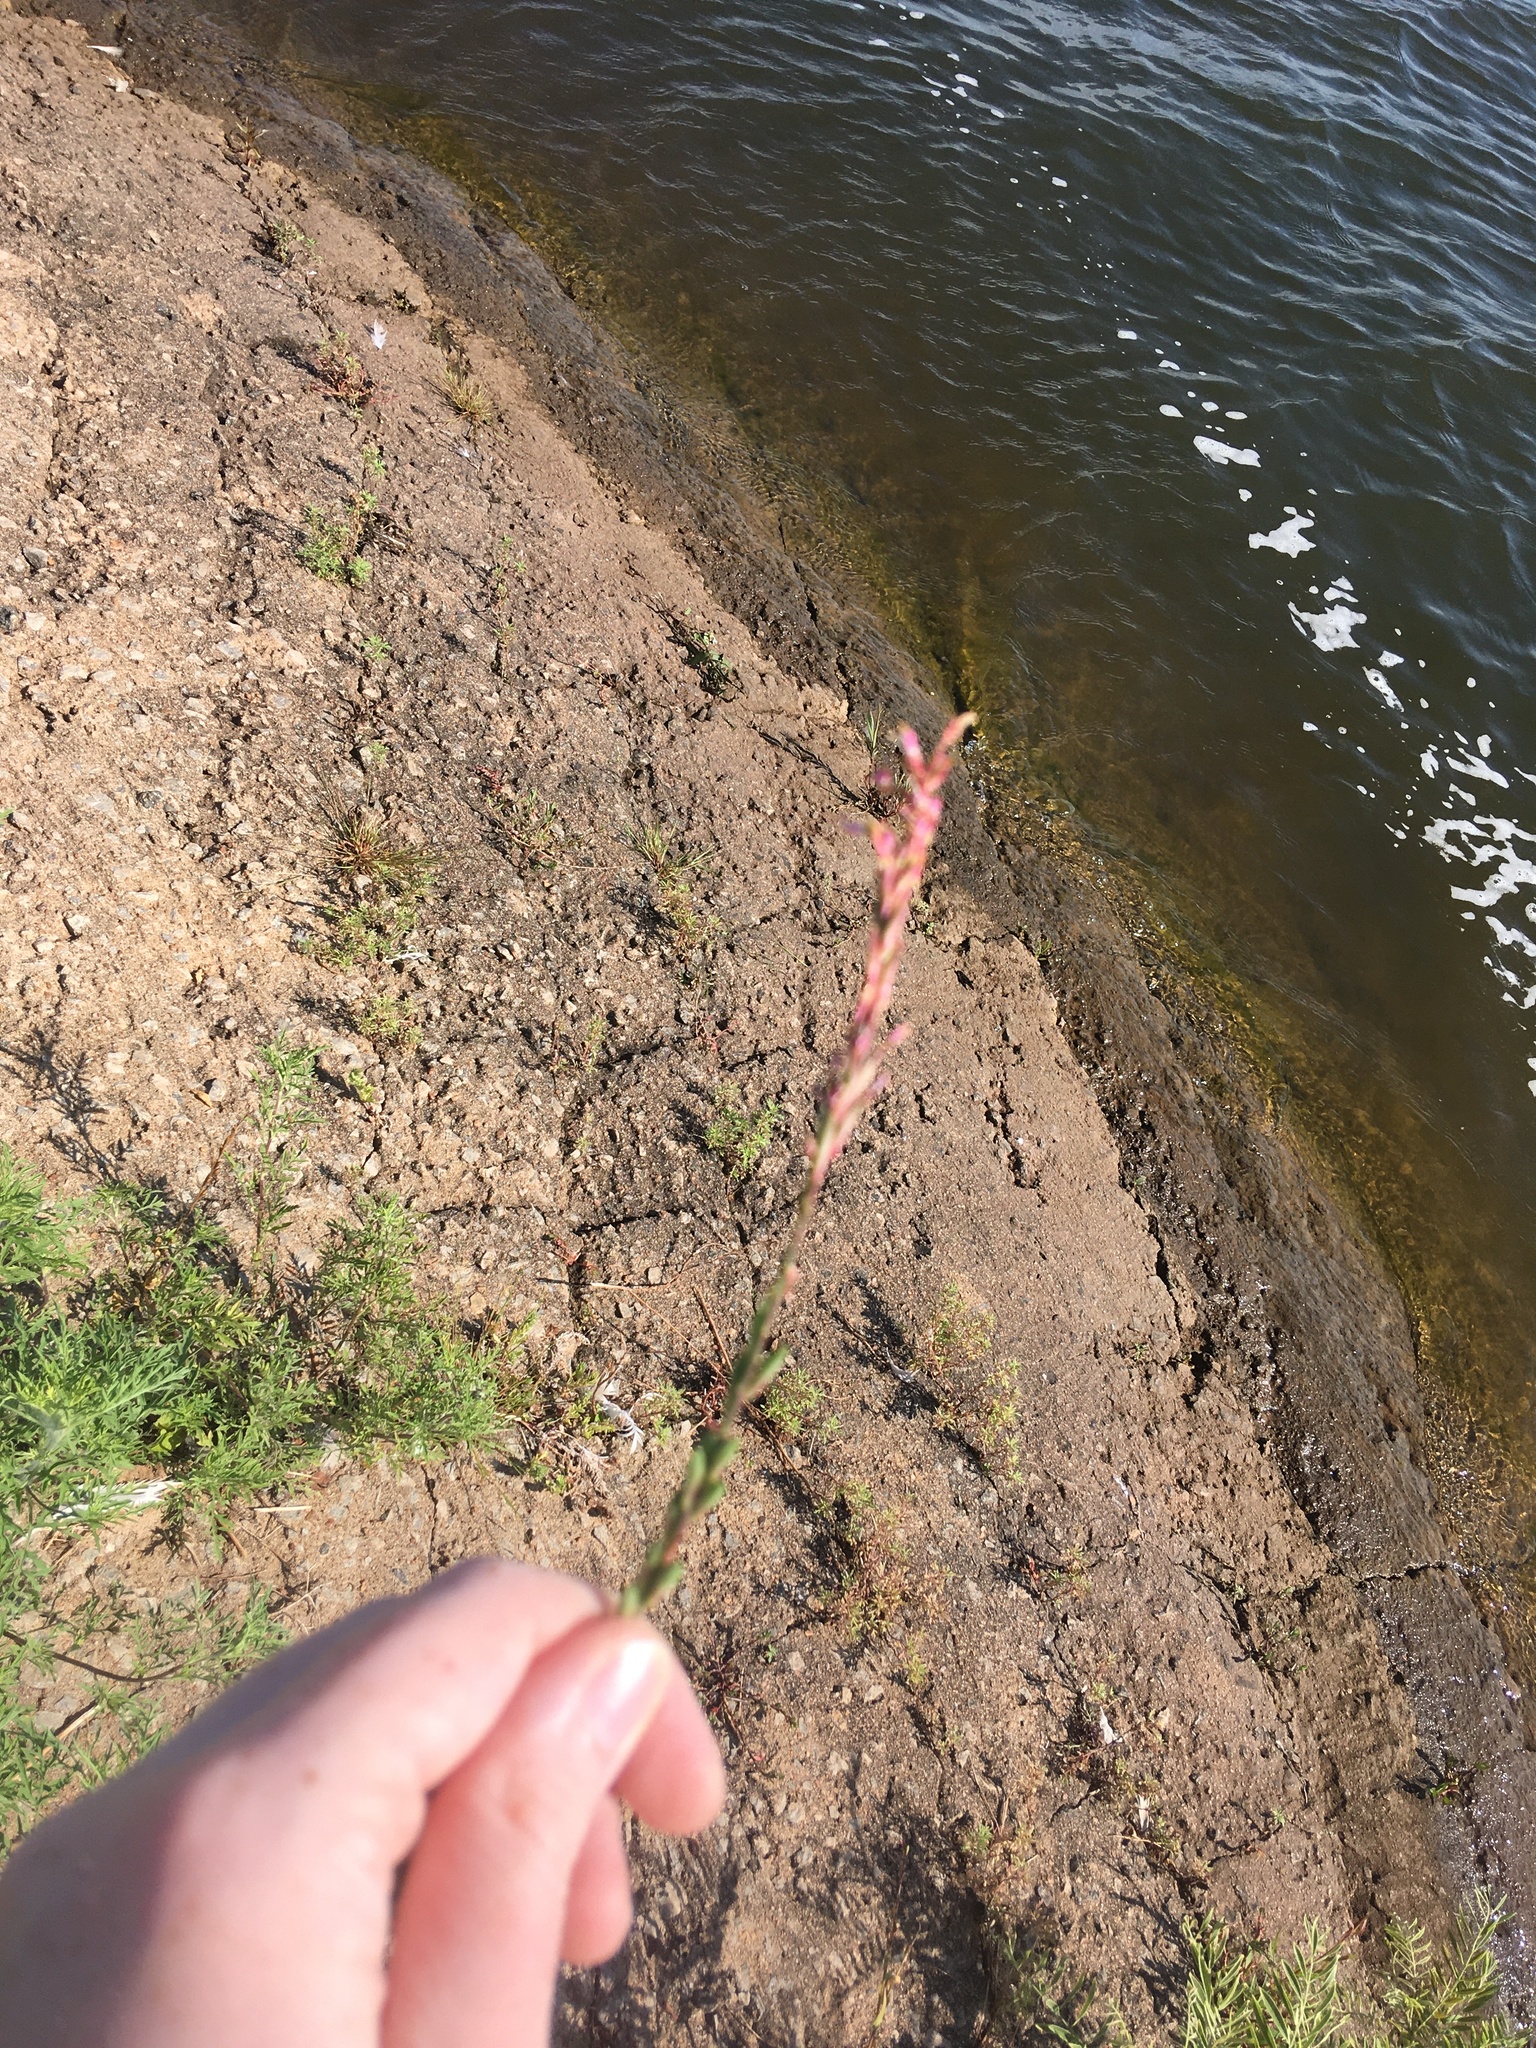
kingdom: Plantae
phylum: Tracheophyta
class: Magnoliopsida
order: Myrtales
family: Onagraceae
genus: Oenothera
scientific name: Oenothera curtiflora
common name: Velvetweed
